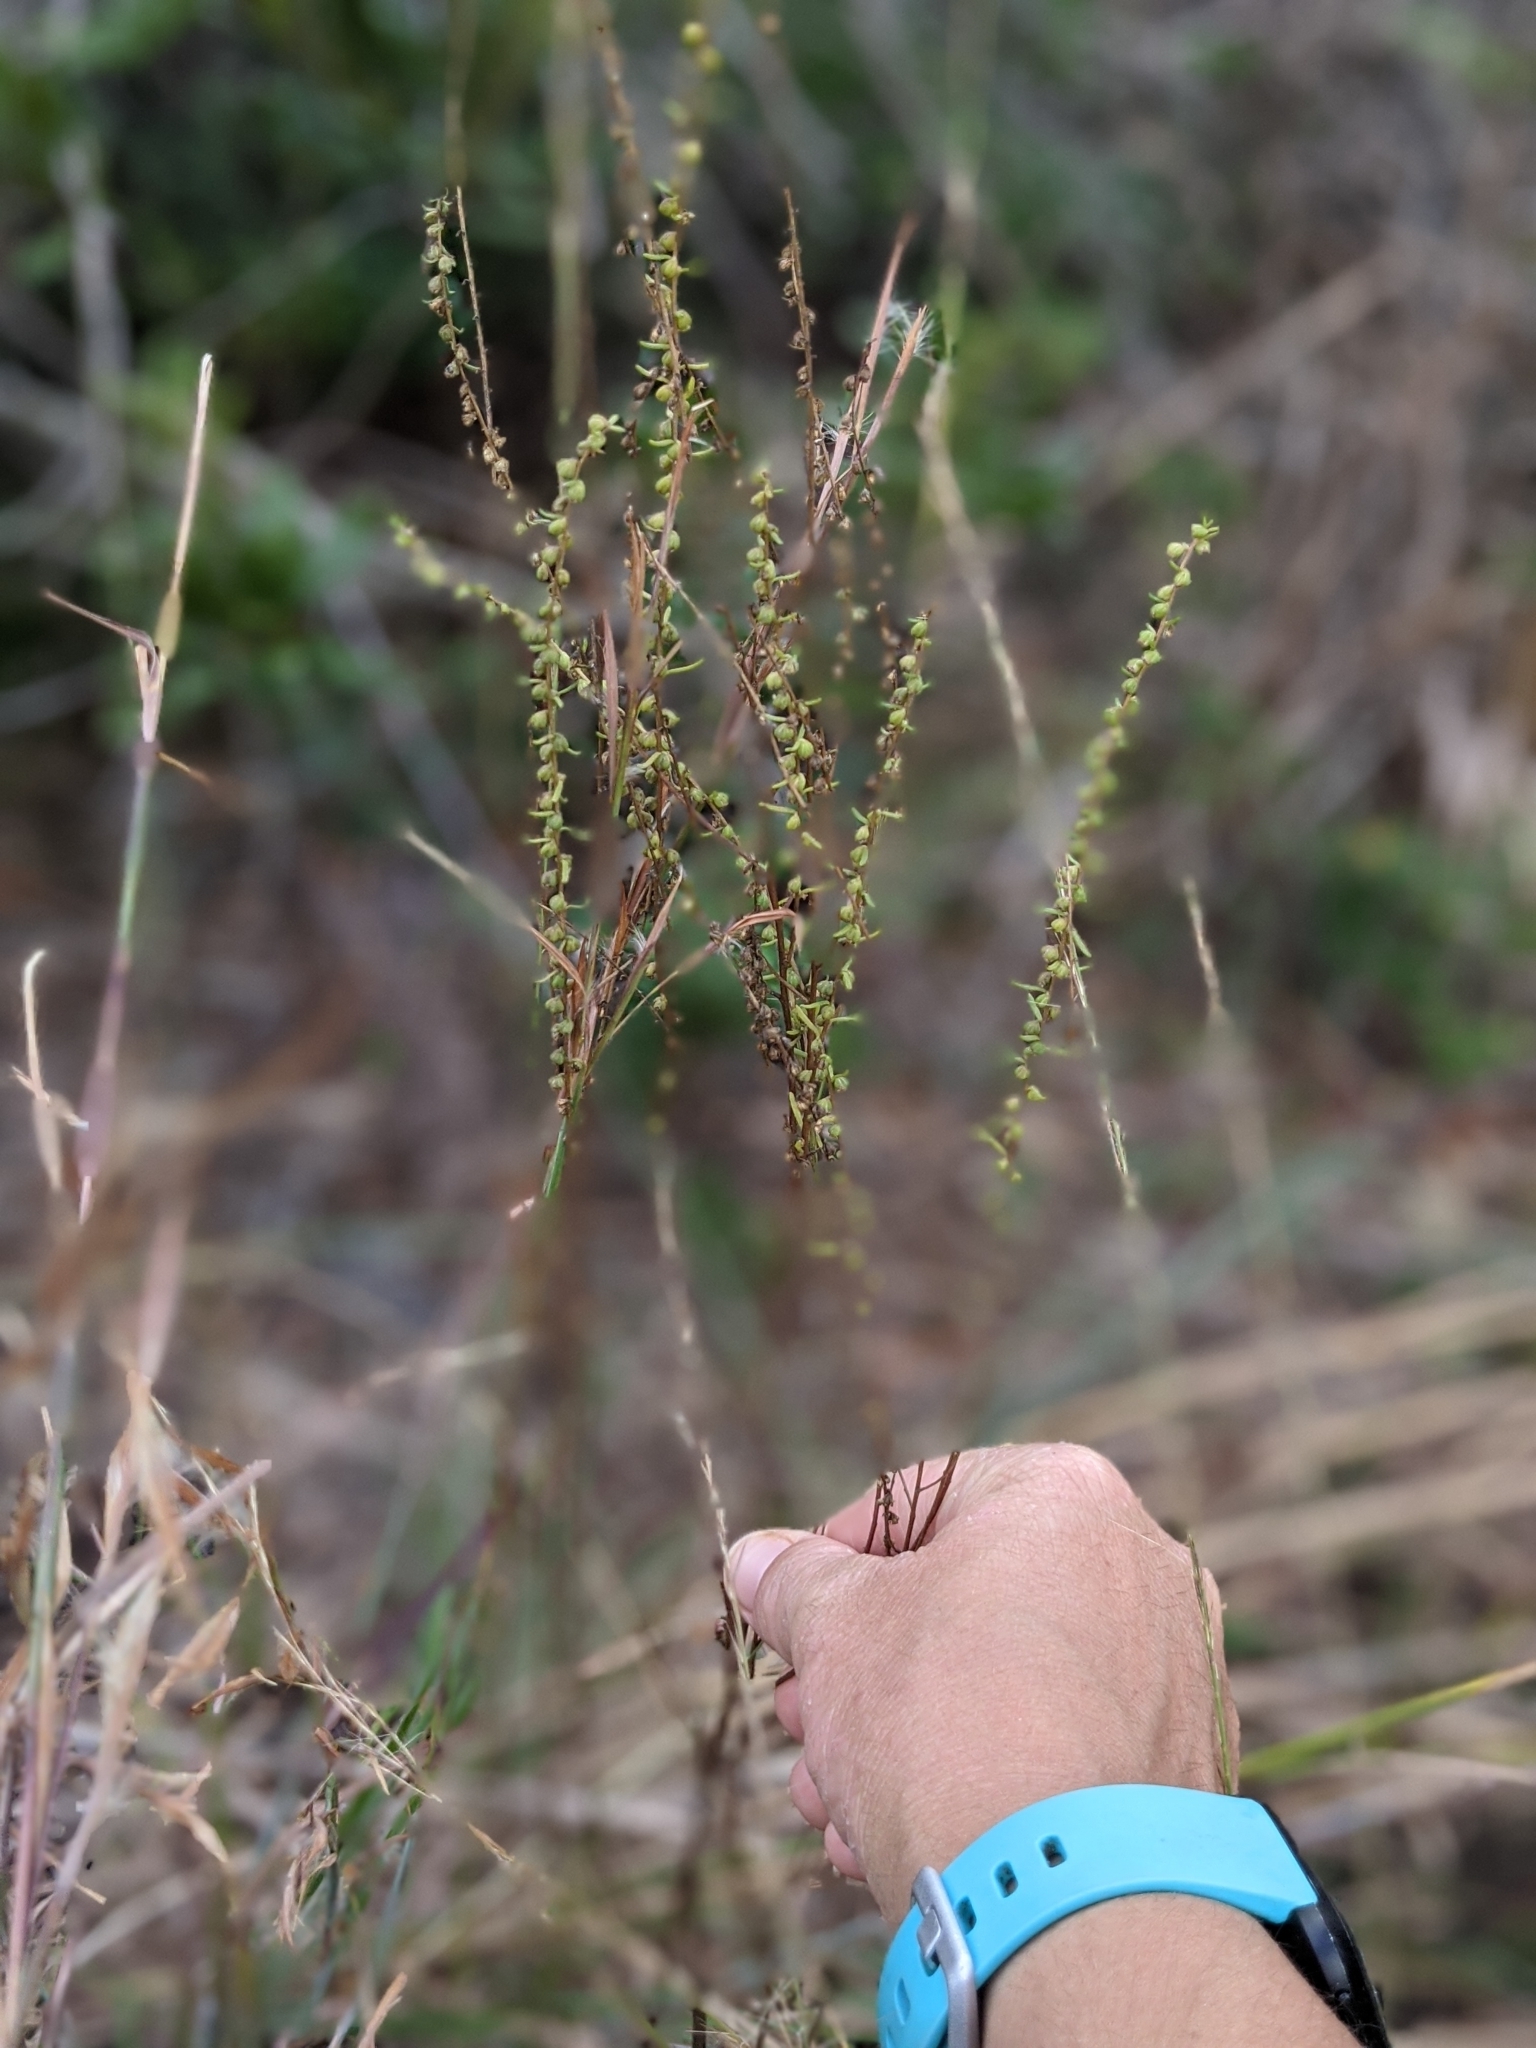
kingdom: Plantae
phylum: Tracheophyta
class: Magnoliopsida
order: Asterales
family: Asteraceae
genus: Iva
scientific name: Iva microcephala
